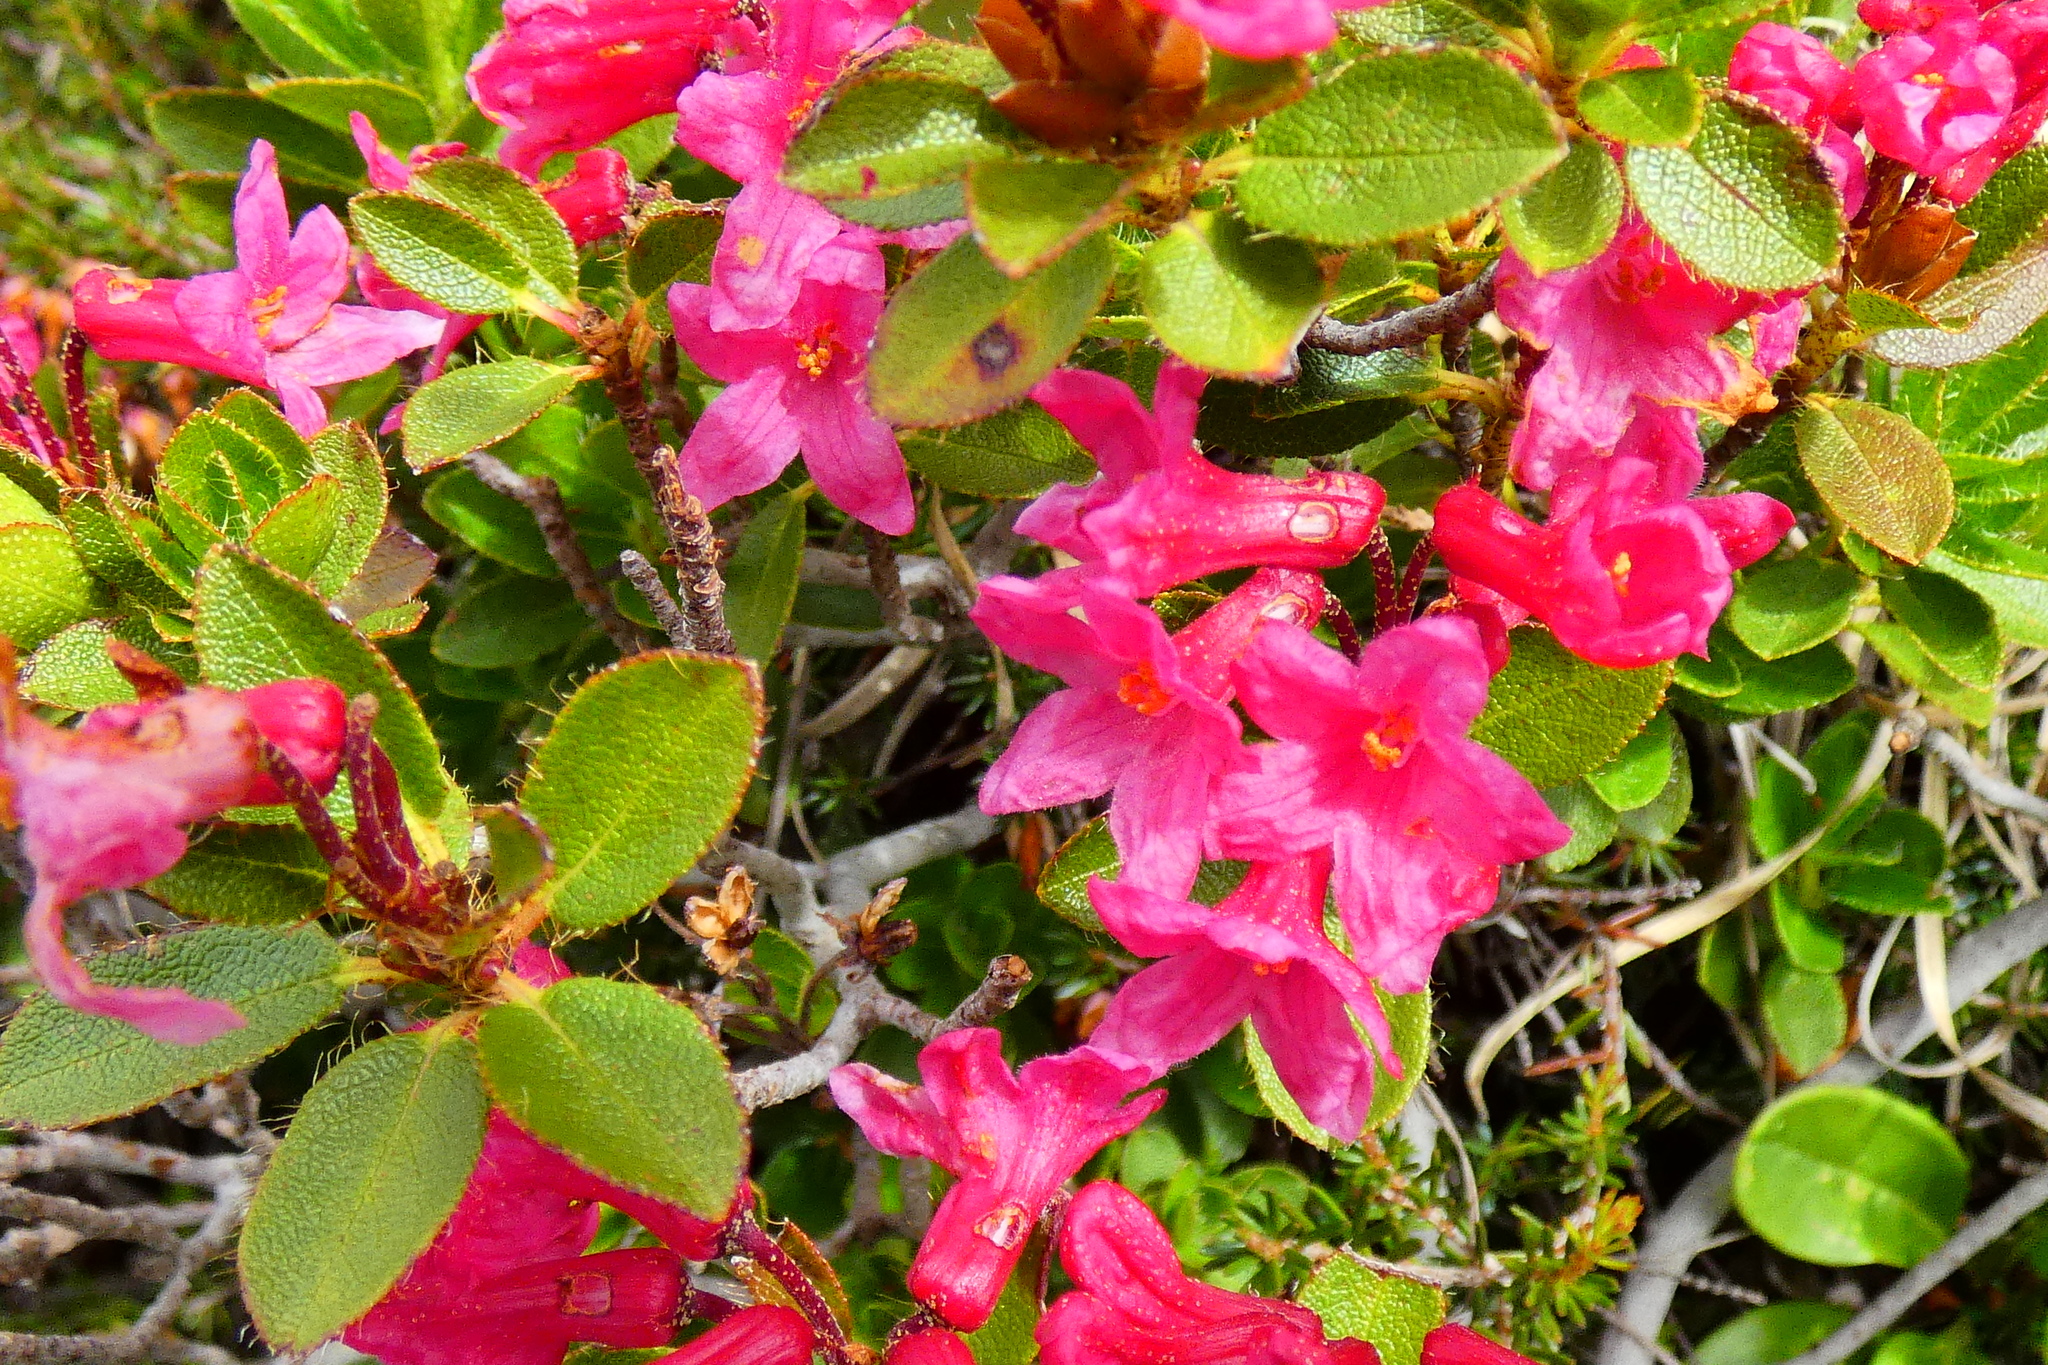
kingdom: Plantae
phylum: Tracheophyta
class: Magnoliopsida
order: Ericales
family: Ericaceae
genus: Rhododendron
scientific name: Rhododendron hirsutum
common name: Hairy alpenrose
